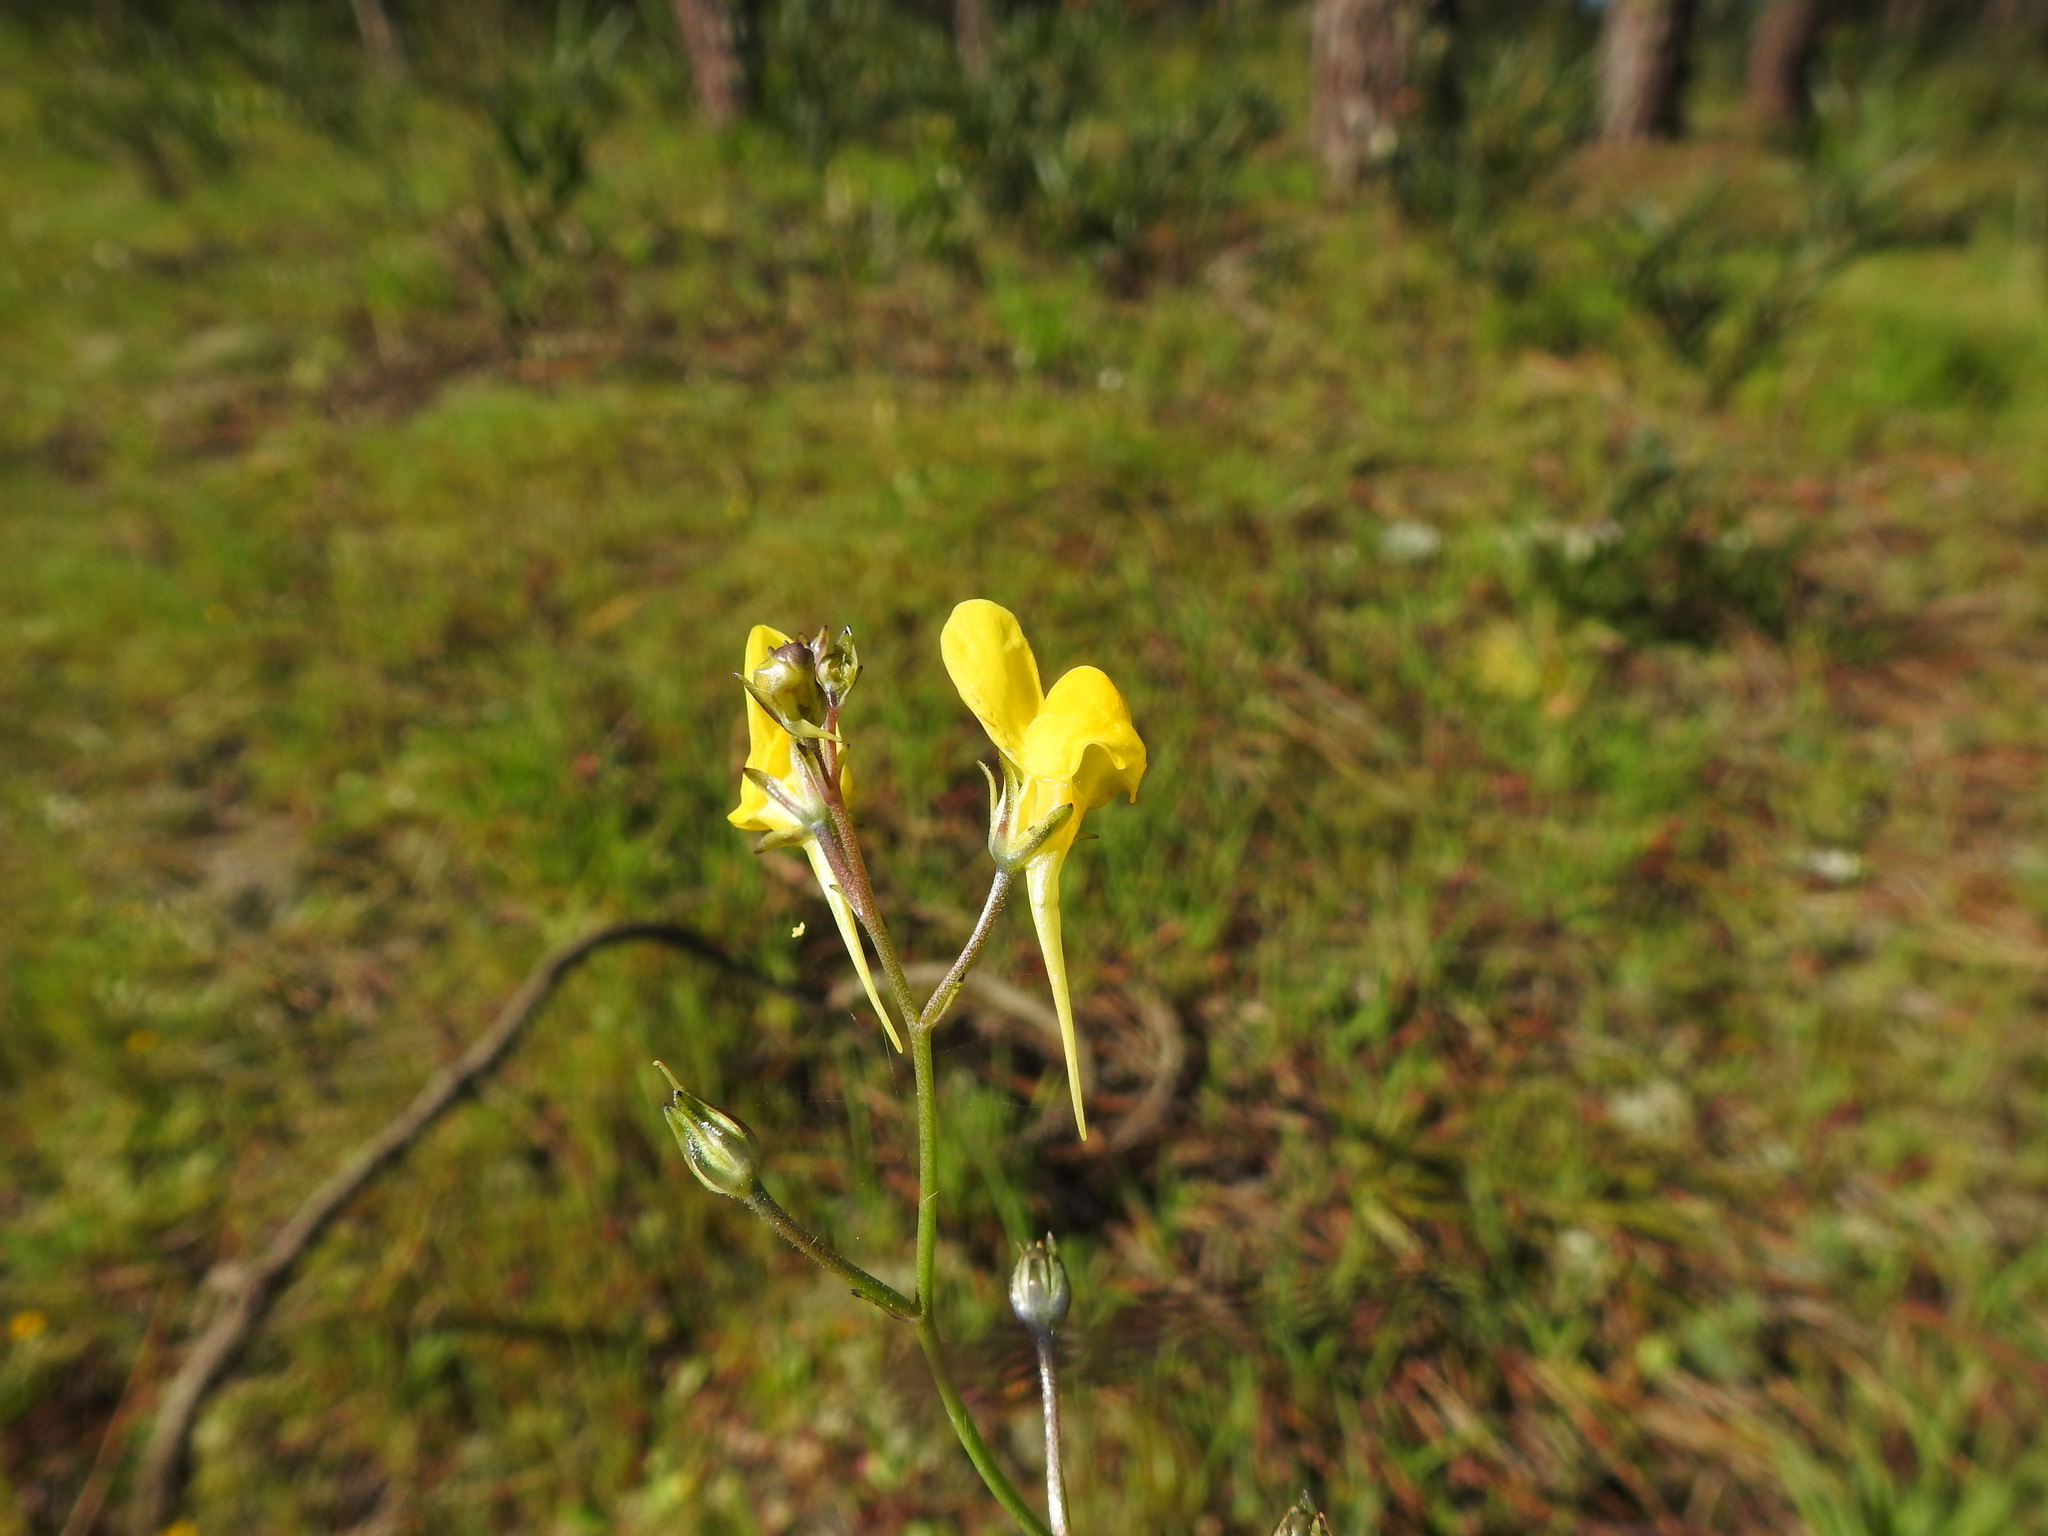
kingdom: Plantae
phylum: Tracheophyta
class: Magnoliopsida
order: Lamiales
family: Plantaginaceae
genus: Linaria
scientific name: Linaria spartea
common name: Ballast toadflax
